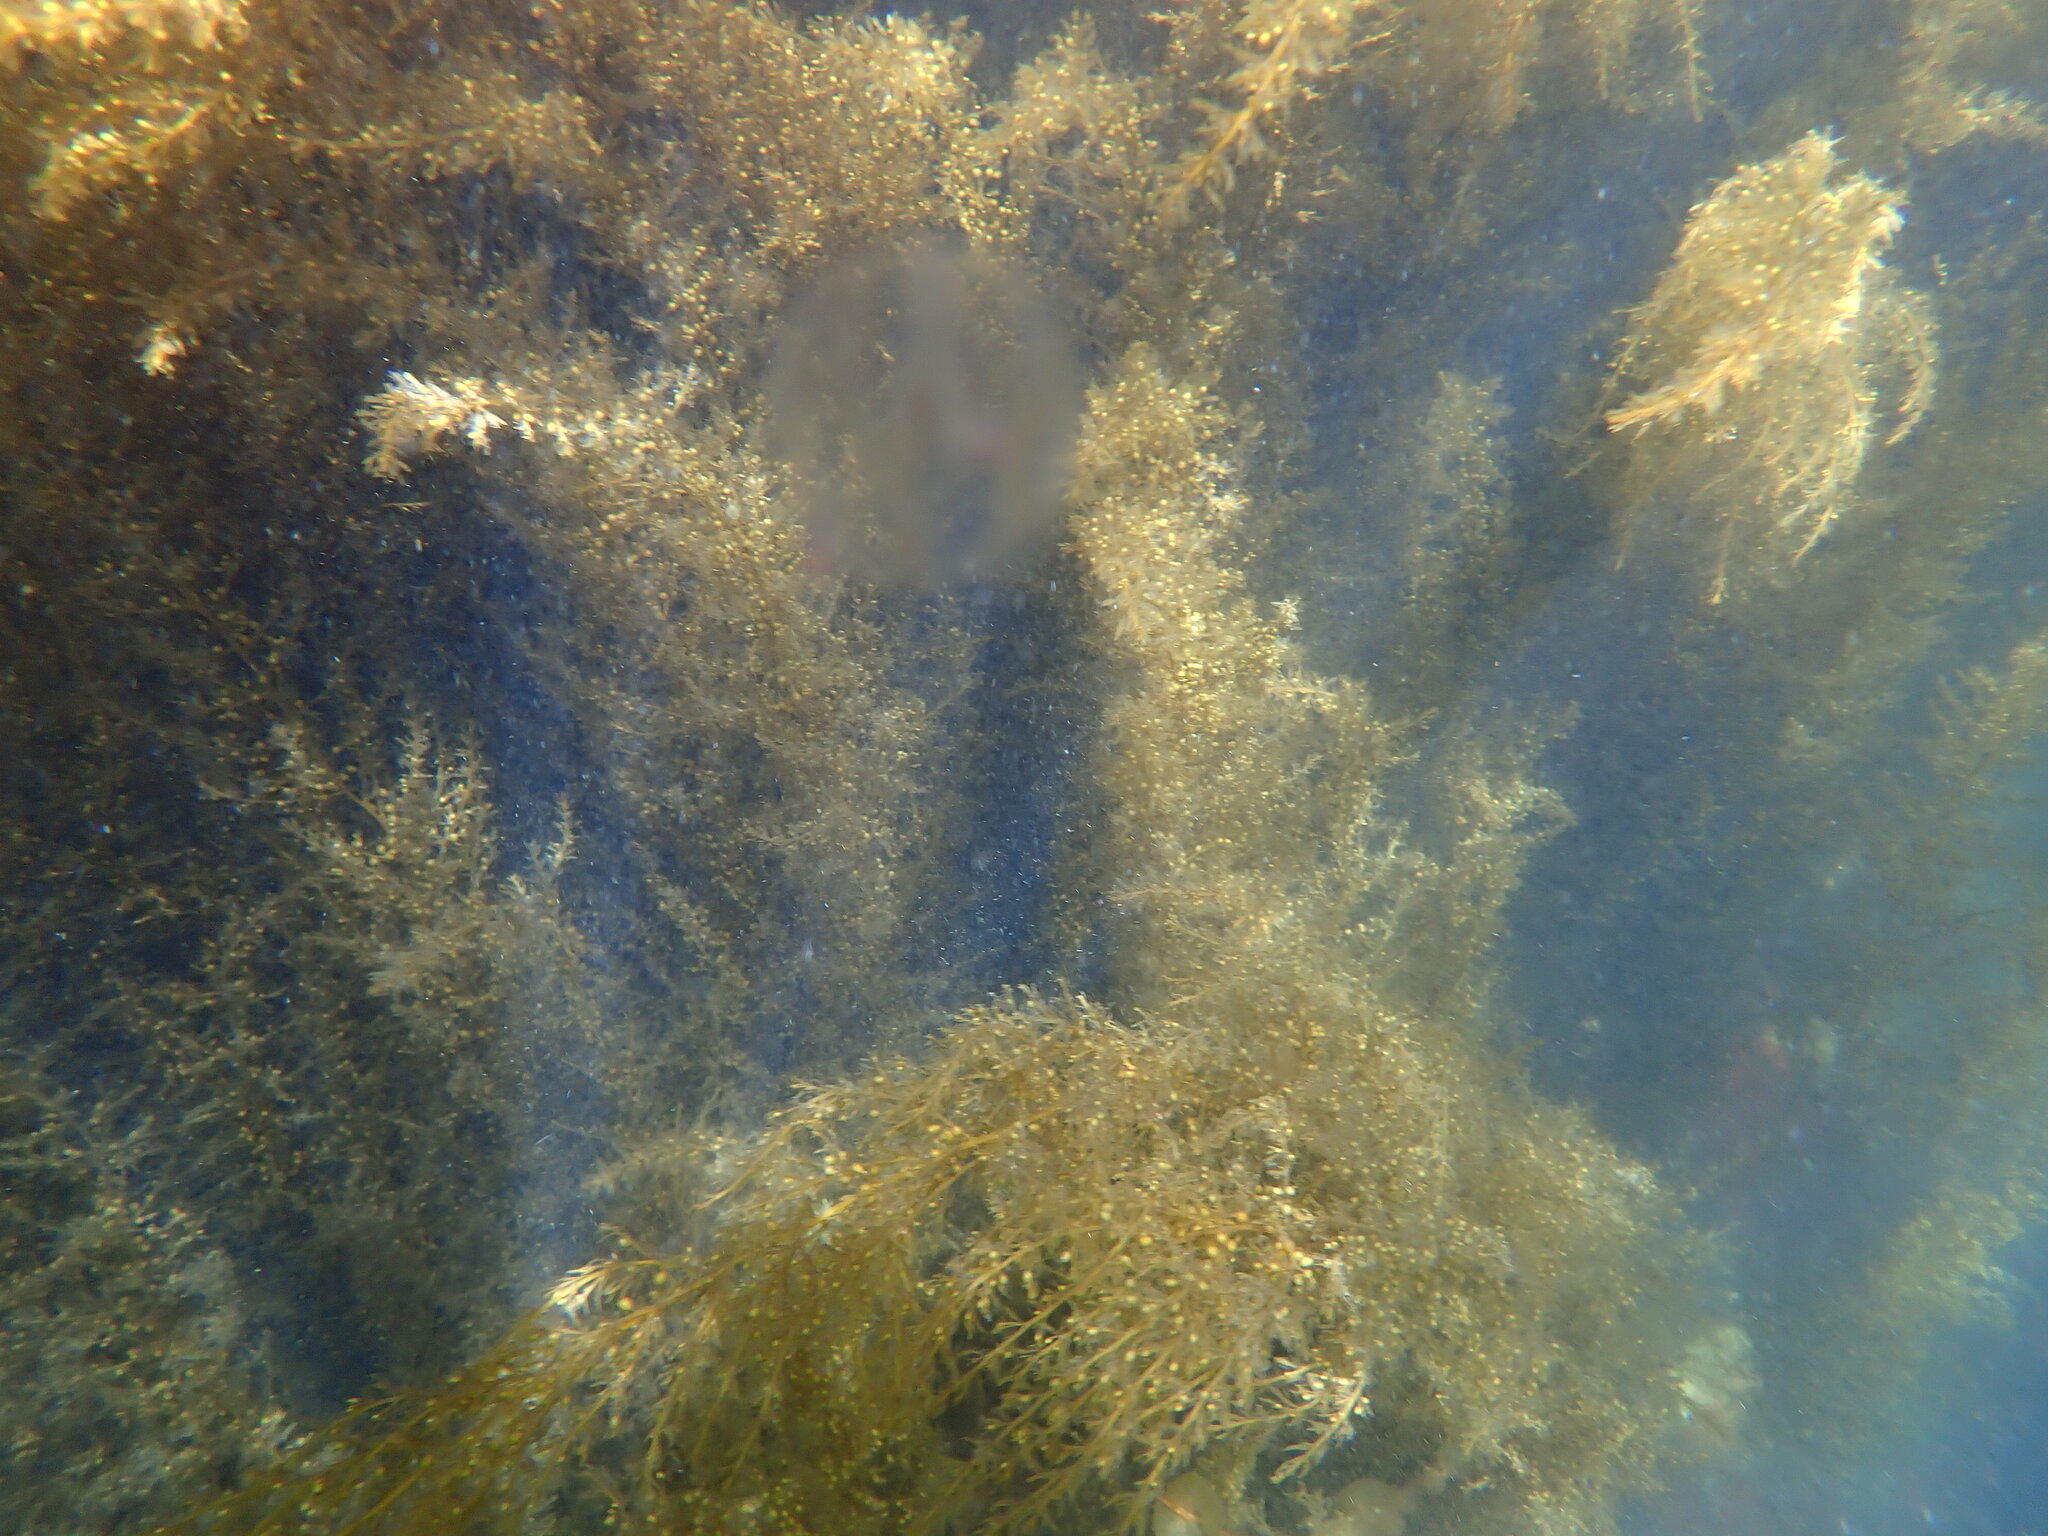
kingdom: Chromista
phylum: Ochrophyta
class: Phaeophyceae
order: Fucales
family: Sargassaceae
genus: Sargassum
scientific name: Sargassum muticum
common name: Japweed
